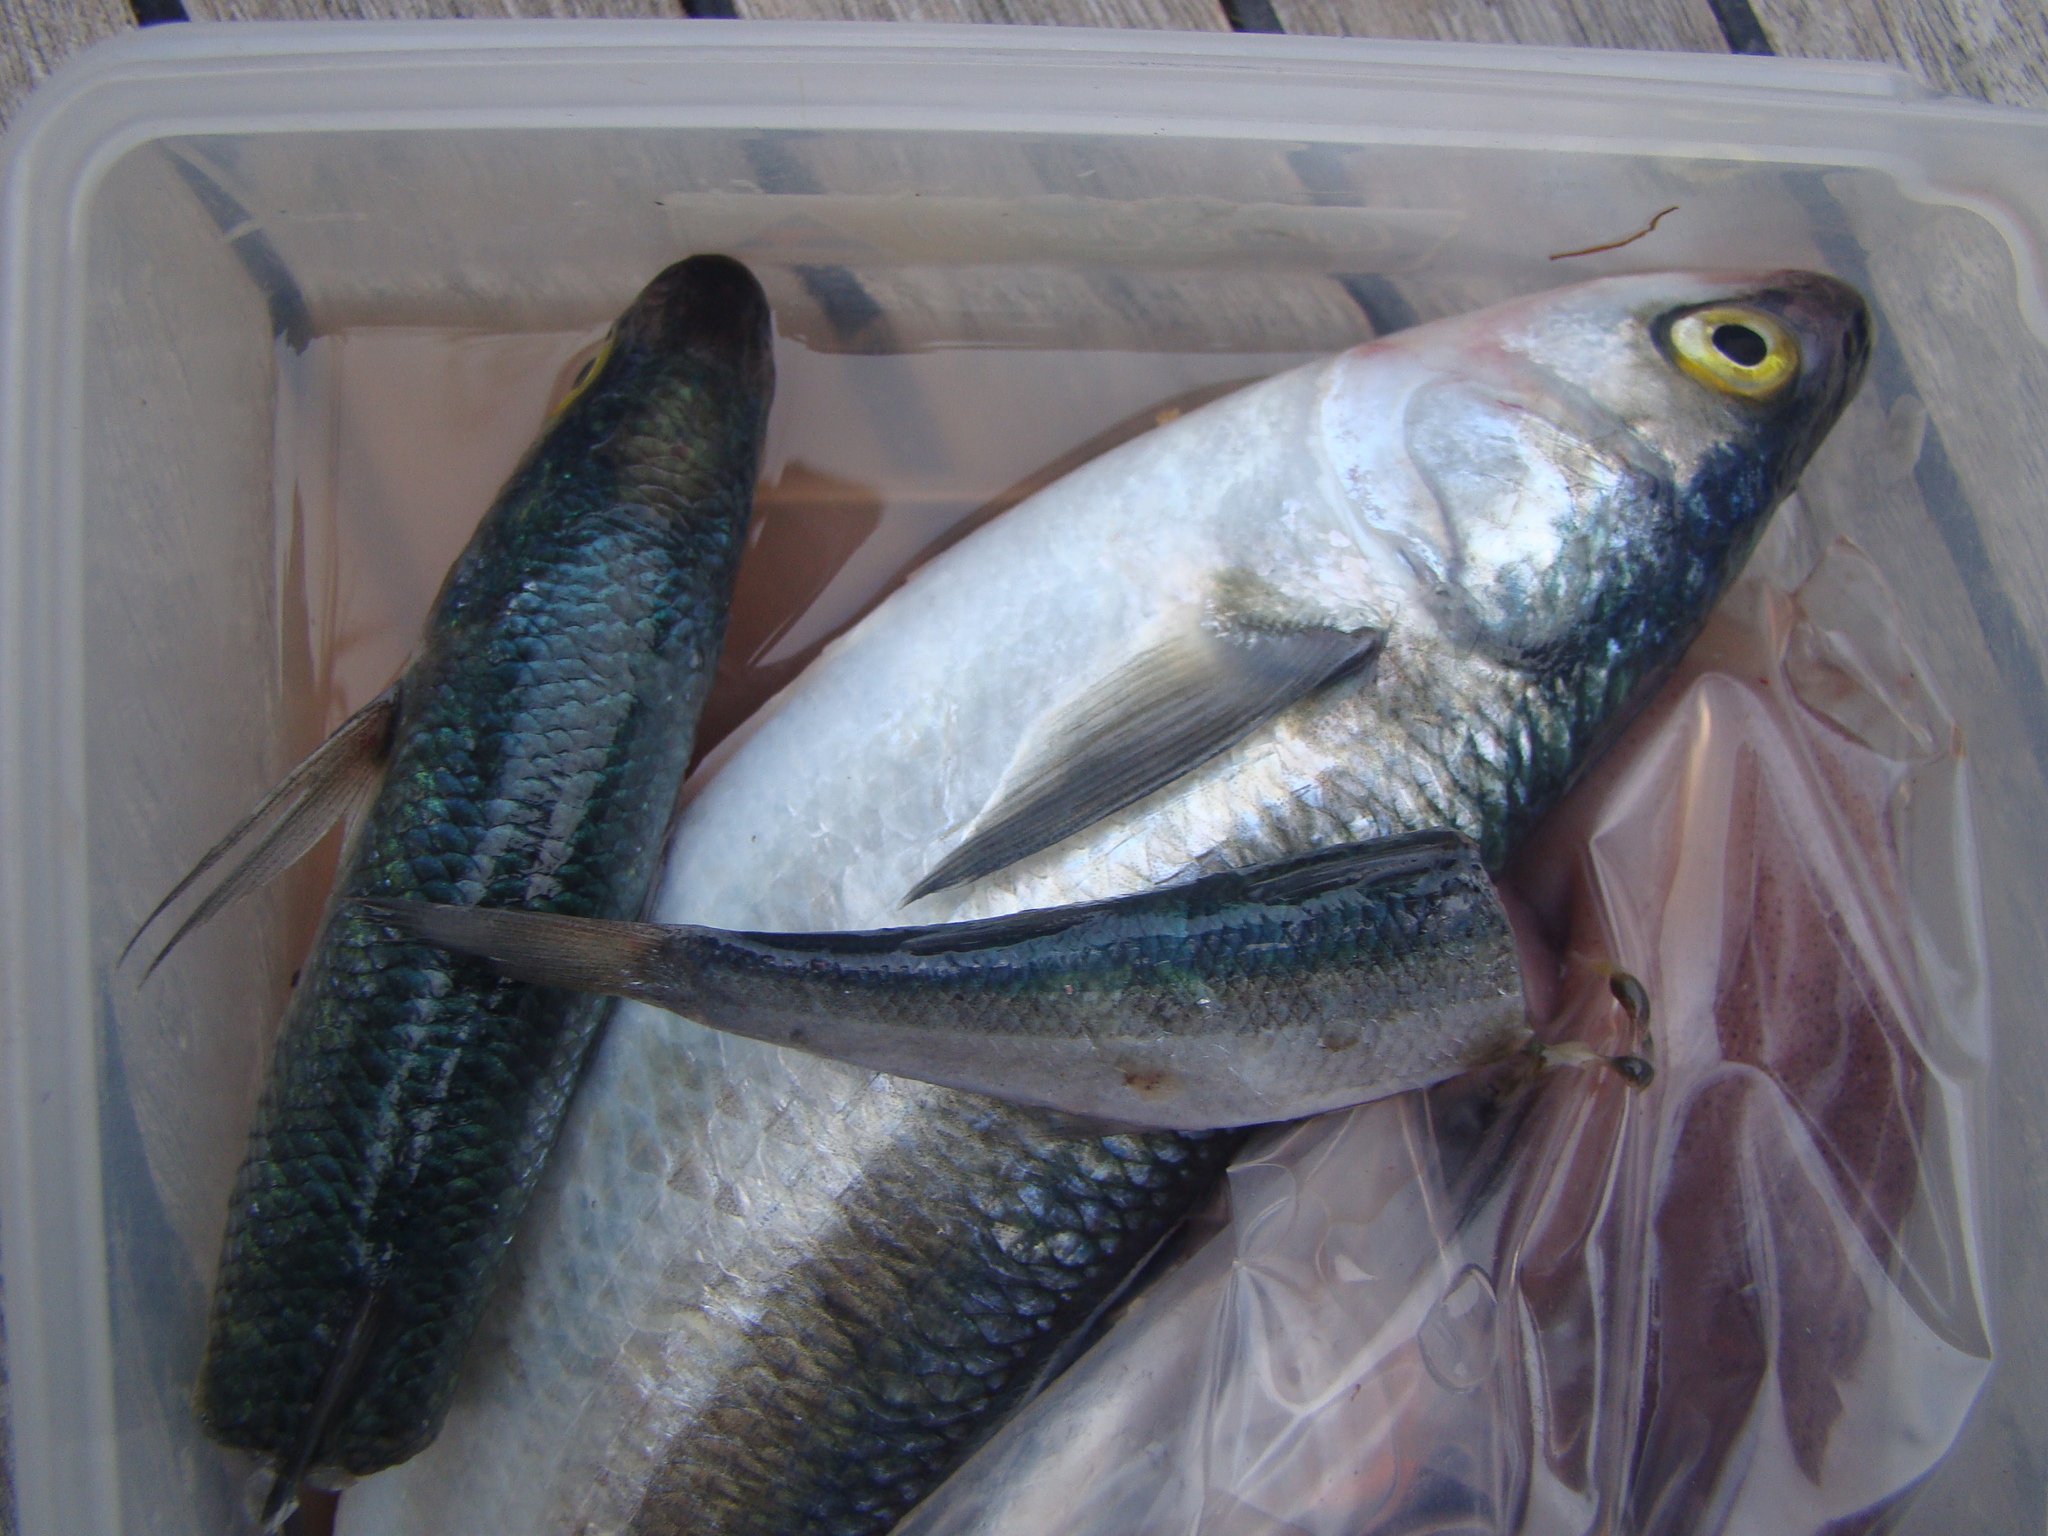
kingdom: Animalia
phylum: Chordata
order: Mugiliformes
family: Mugilidae
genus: Aldrichetta
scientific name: Aldrichetta forsteri
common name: Yellow-eye mullet
